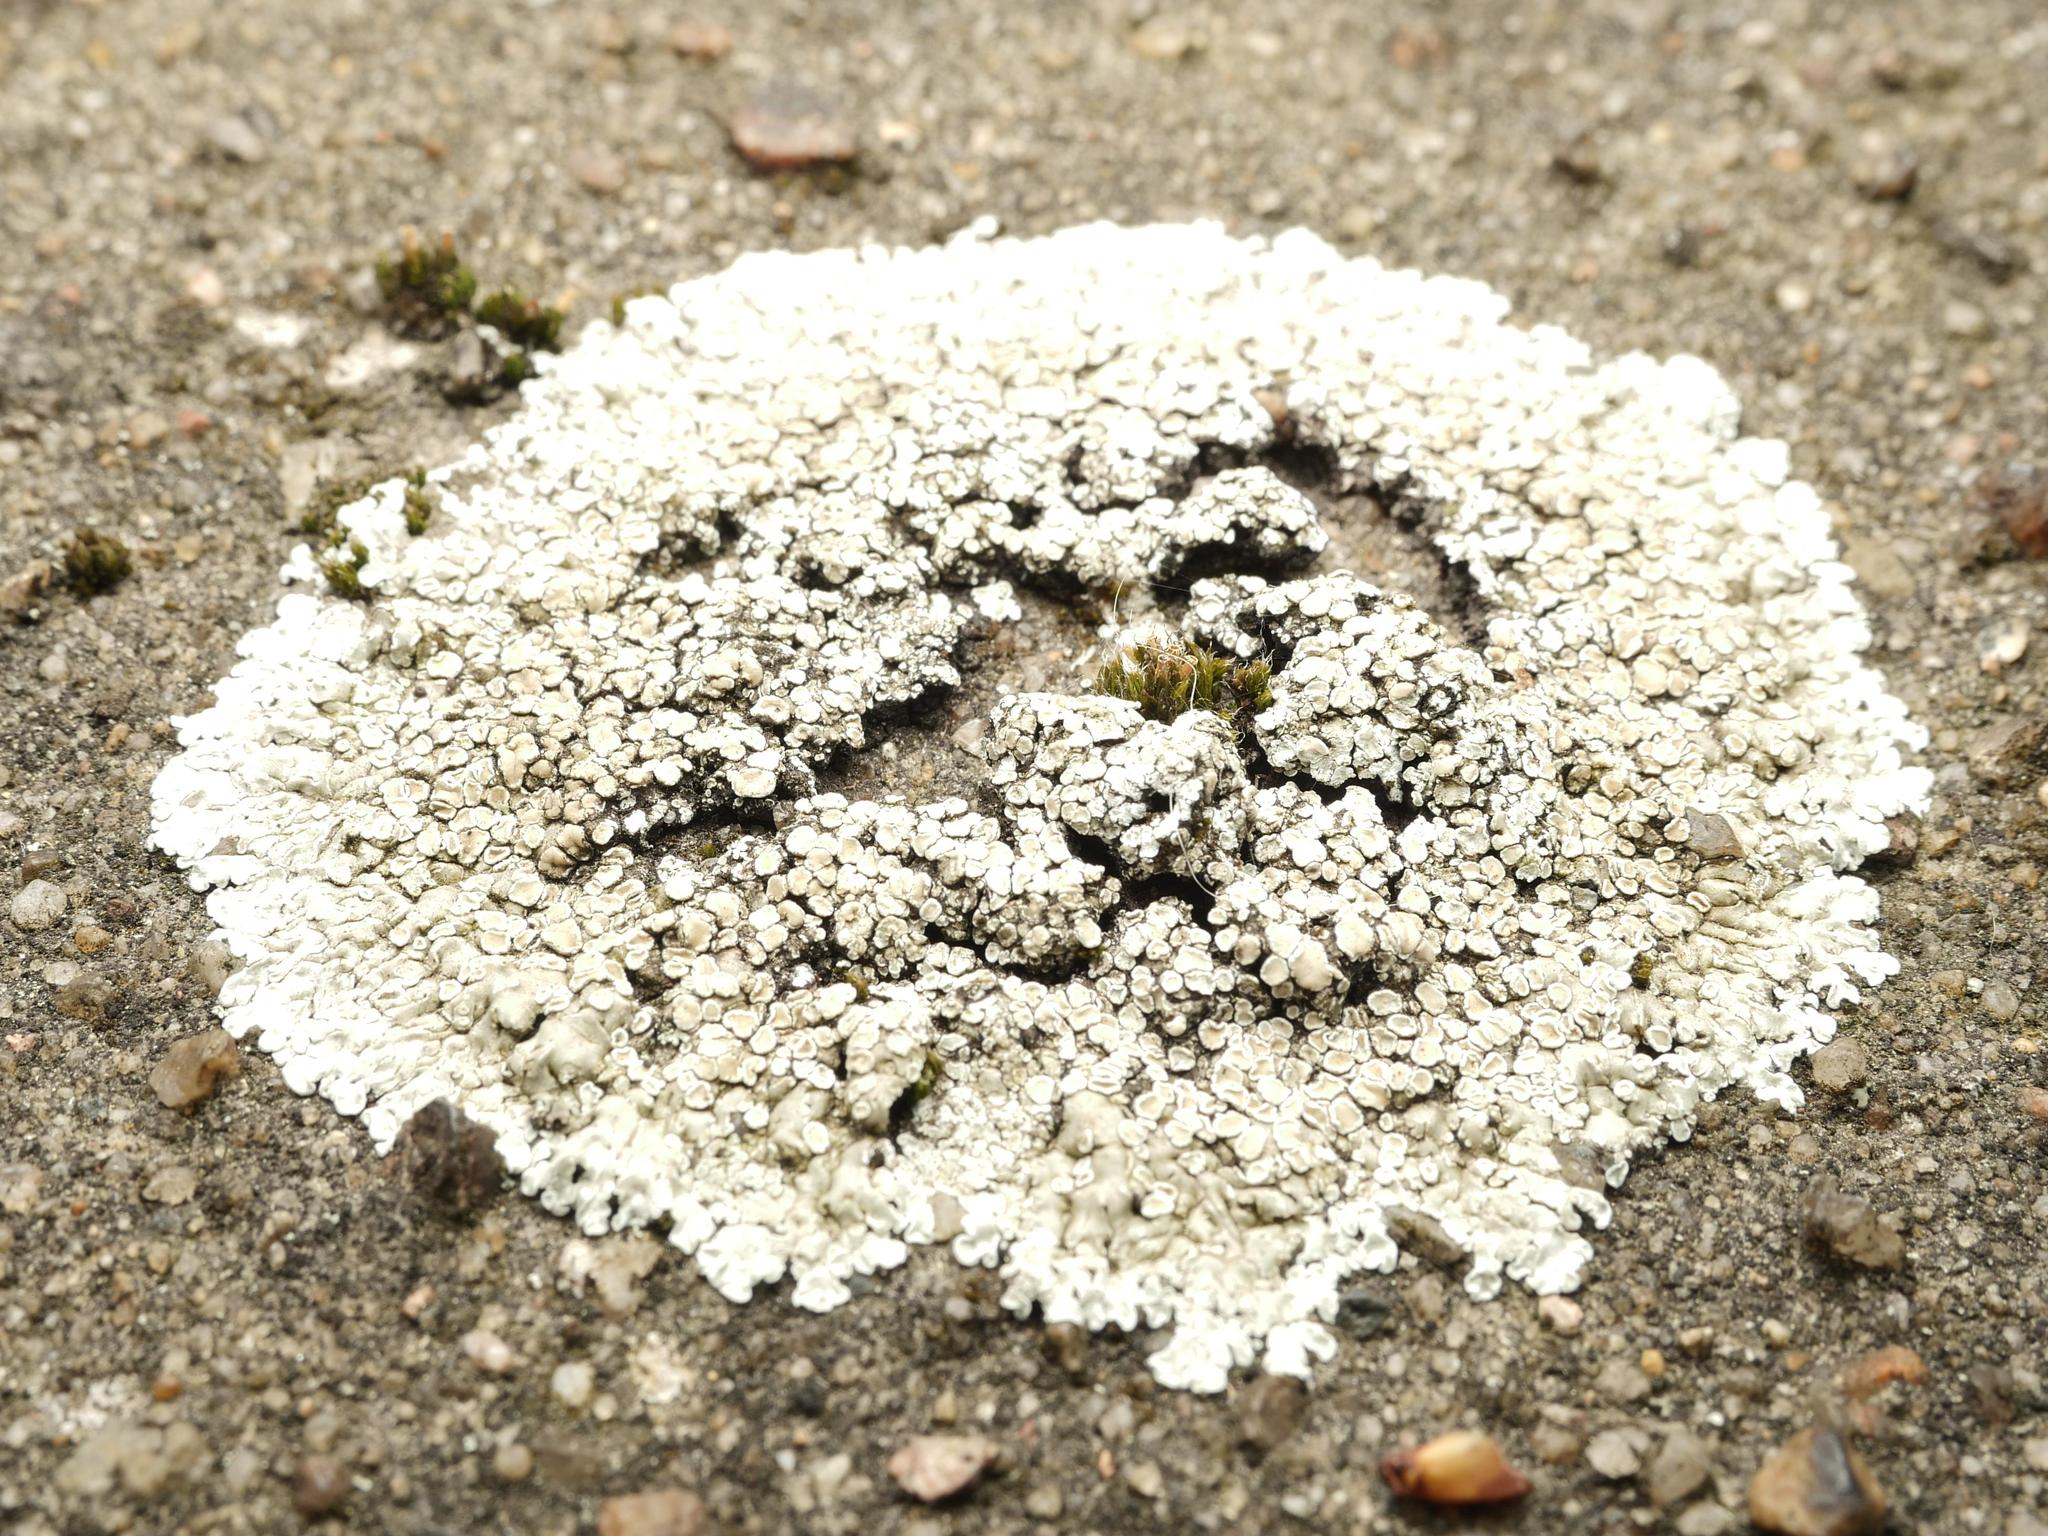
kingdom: Fungi
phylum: Ascomycota
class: Lecanoromycetes
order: Lecanorales
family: Lecanoraceae
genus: Protoparmeliopsis
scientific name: Protoparmeliopsis muralis
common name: Stonewall rim lichen
